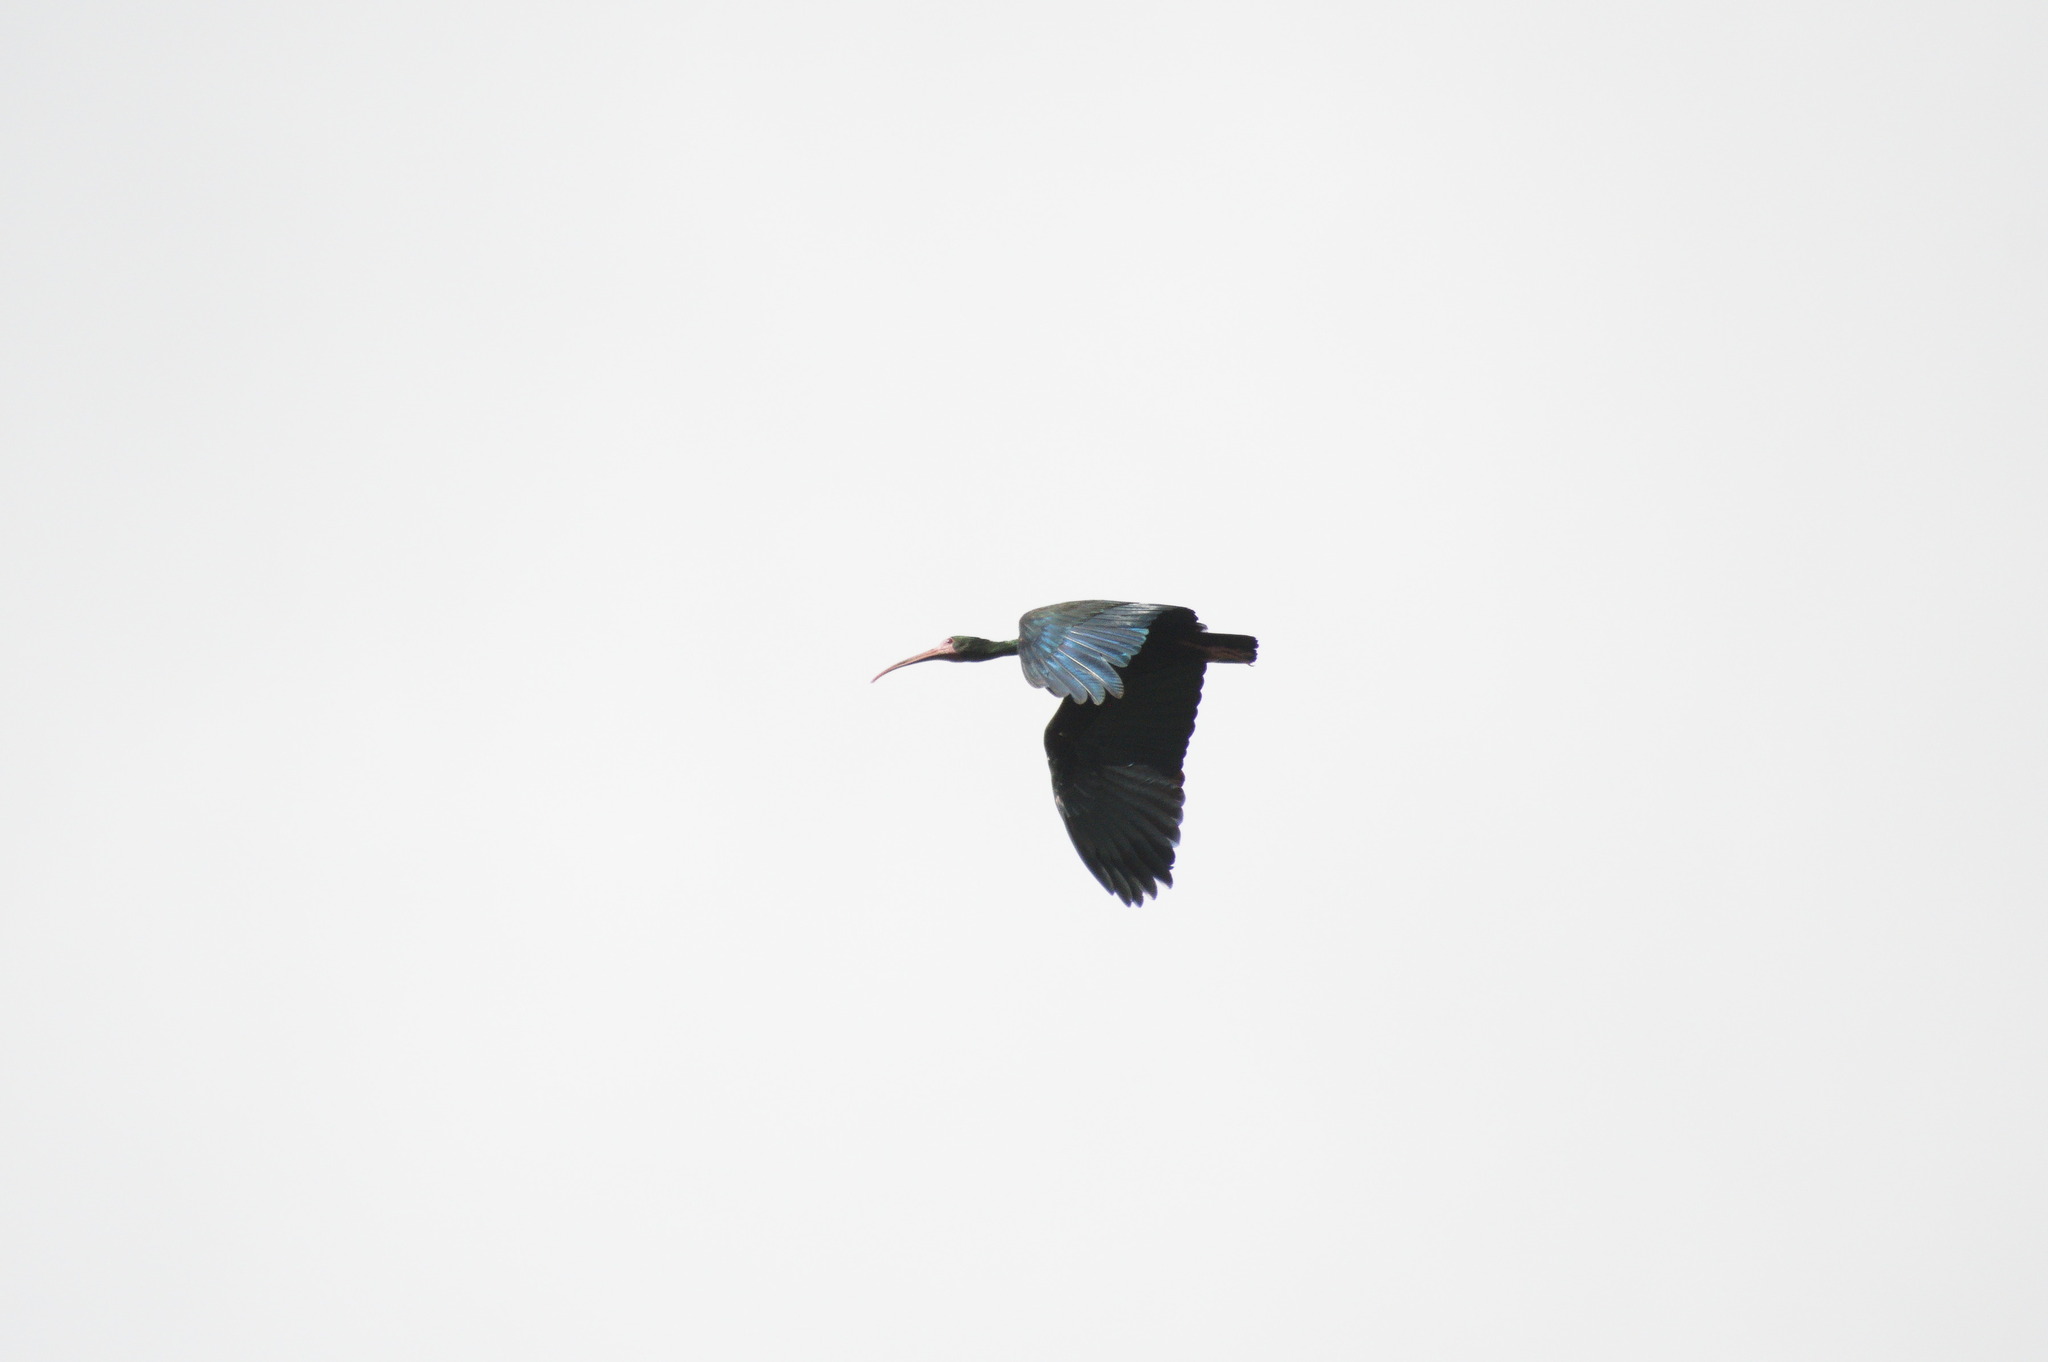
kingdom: Animalia
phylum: Chordata
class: Aves
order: Pelecaniformes
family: Threskiornithidae
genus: Phimosus
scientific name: Phimosus infuscatus
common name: Bare-faced ibis
